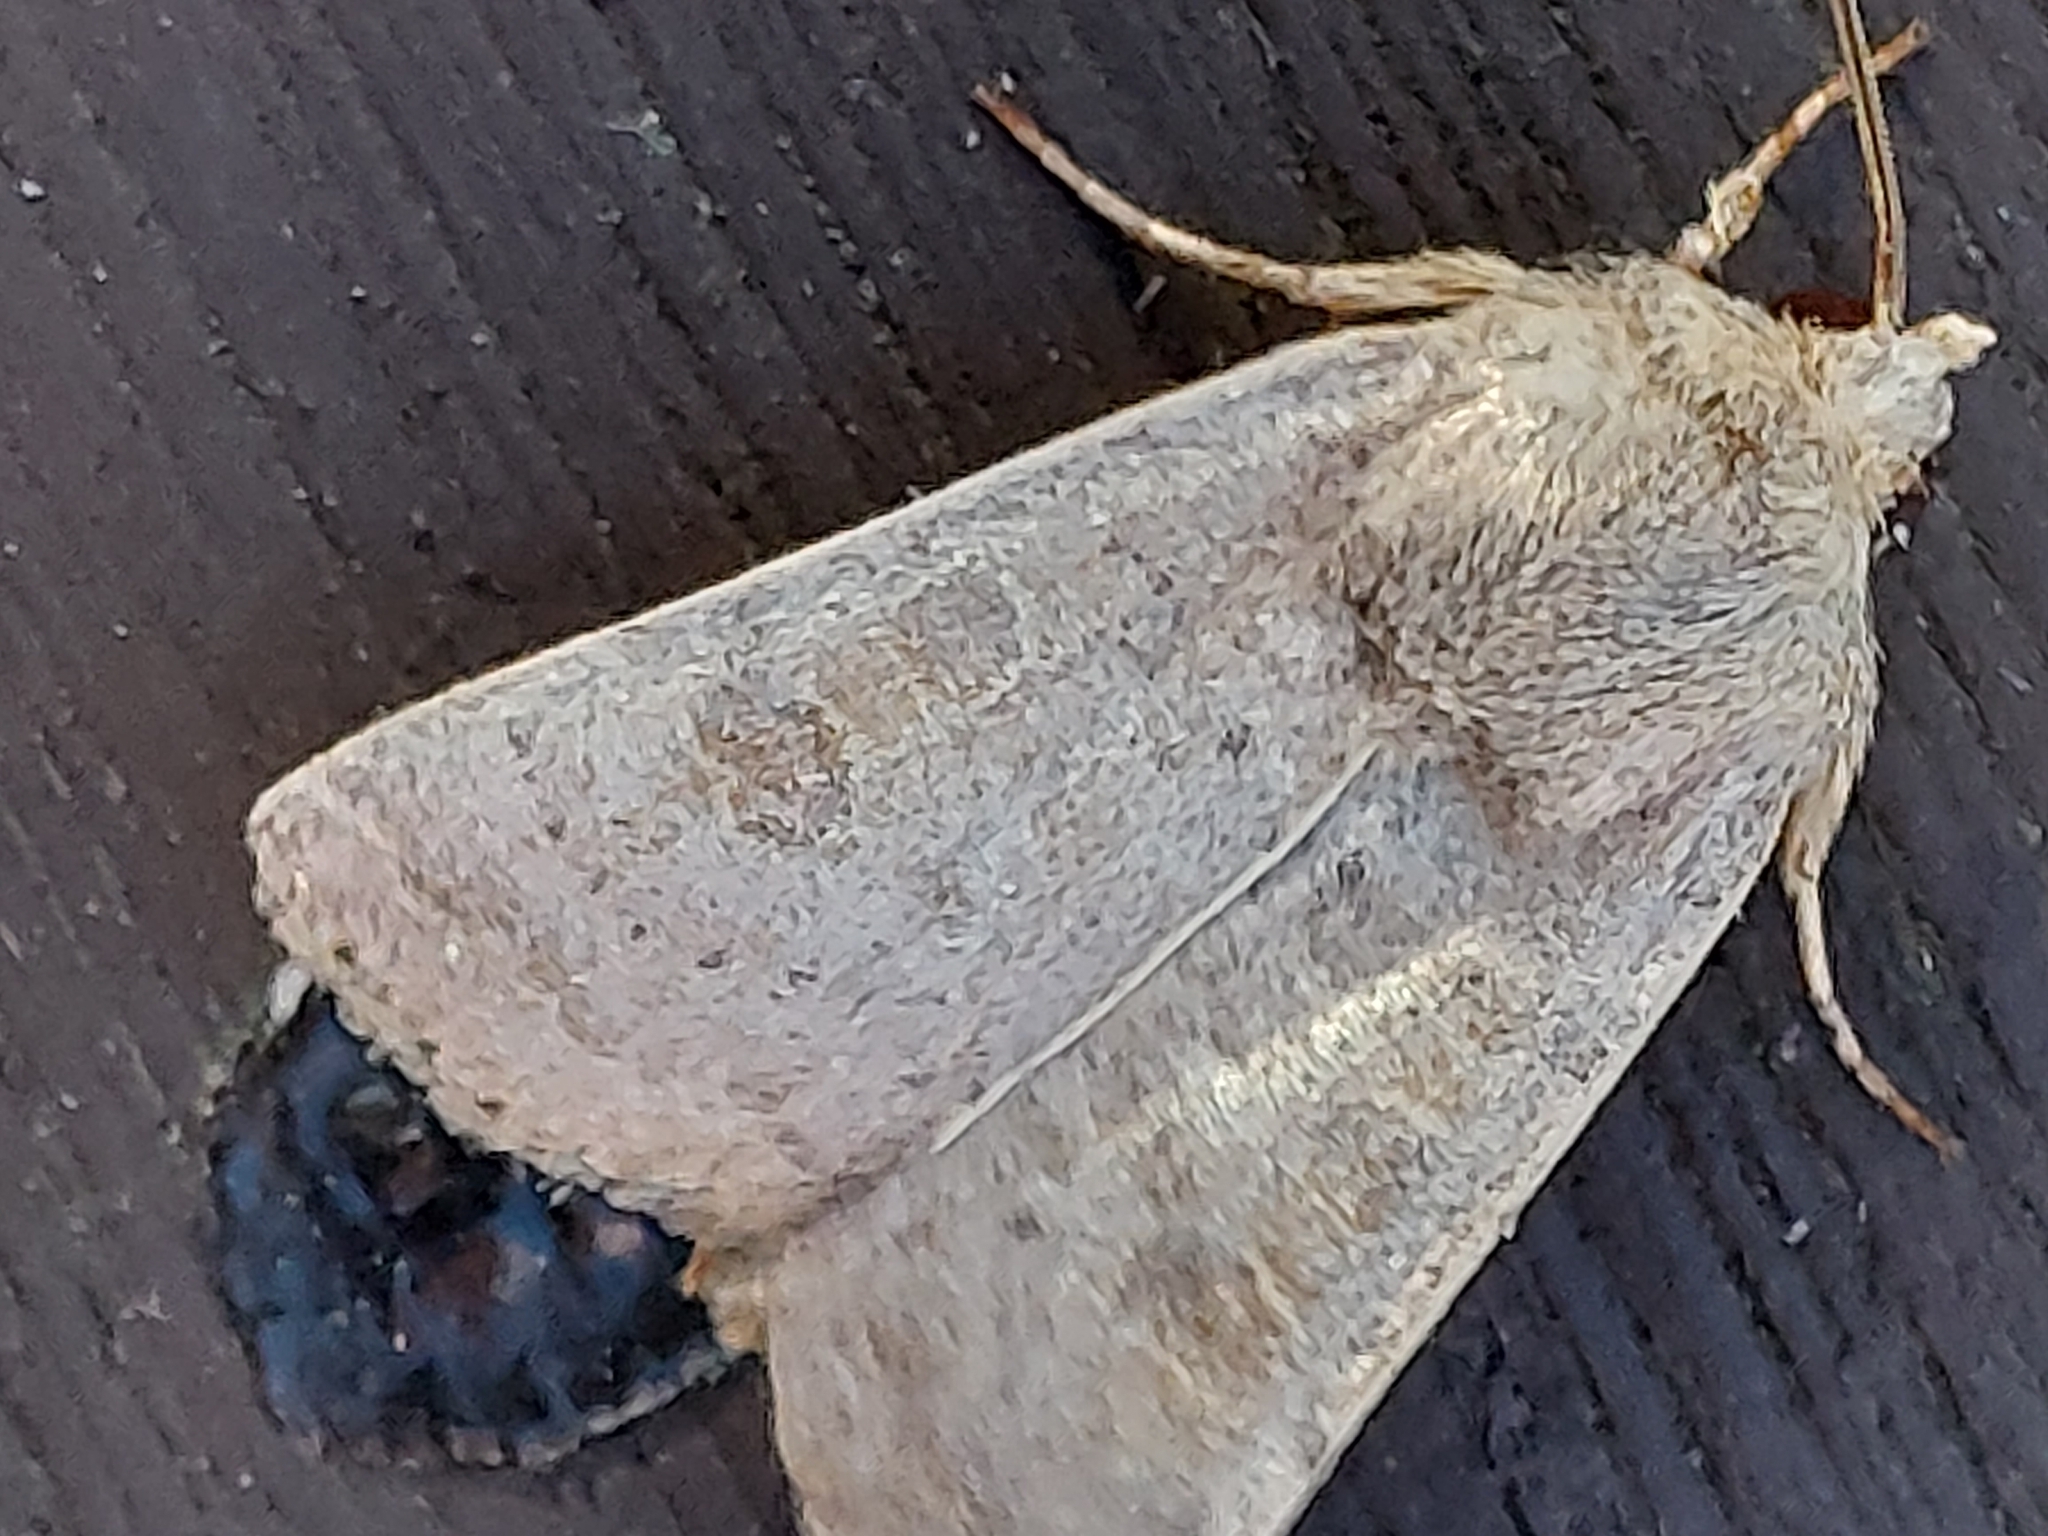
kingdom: Animalia
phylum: Arthropoda
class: Insecta
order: Lepidoptera
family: Noctuidae
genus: Hoplodrina
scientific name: Hoplodrina ambigua
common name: Vine's rustic
